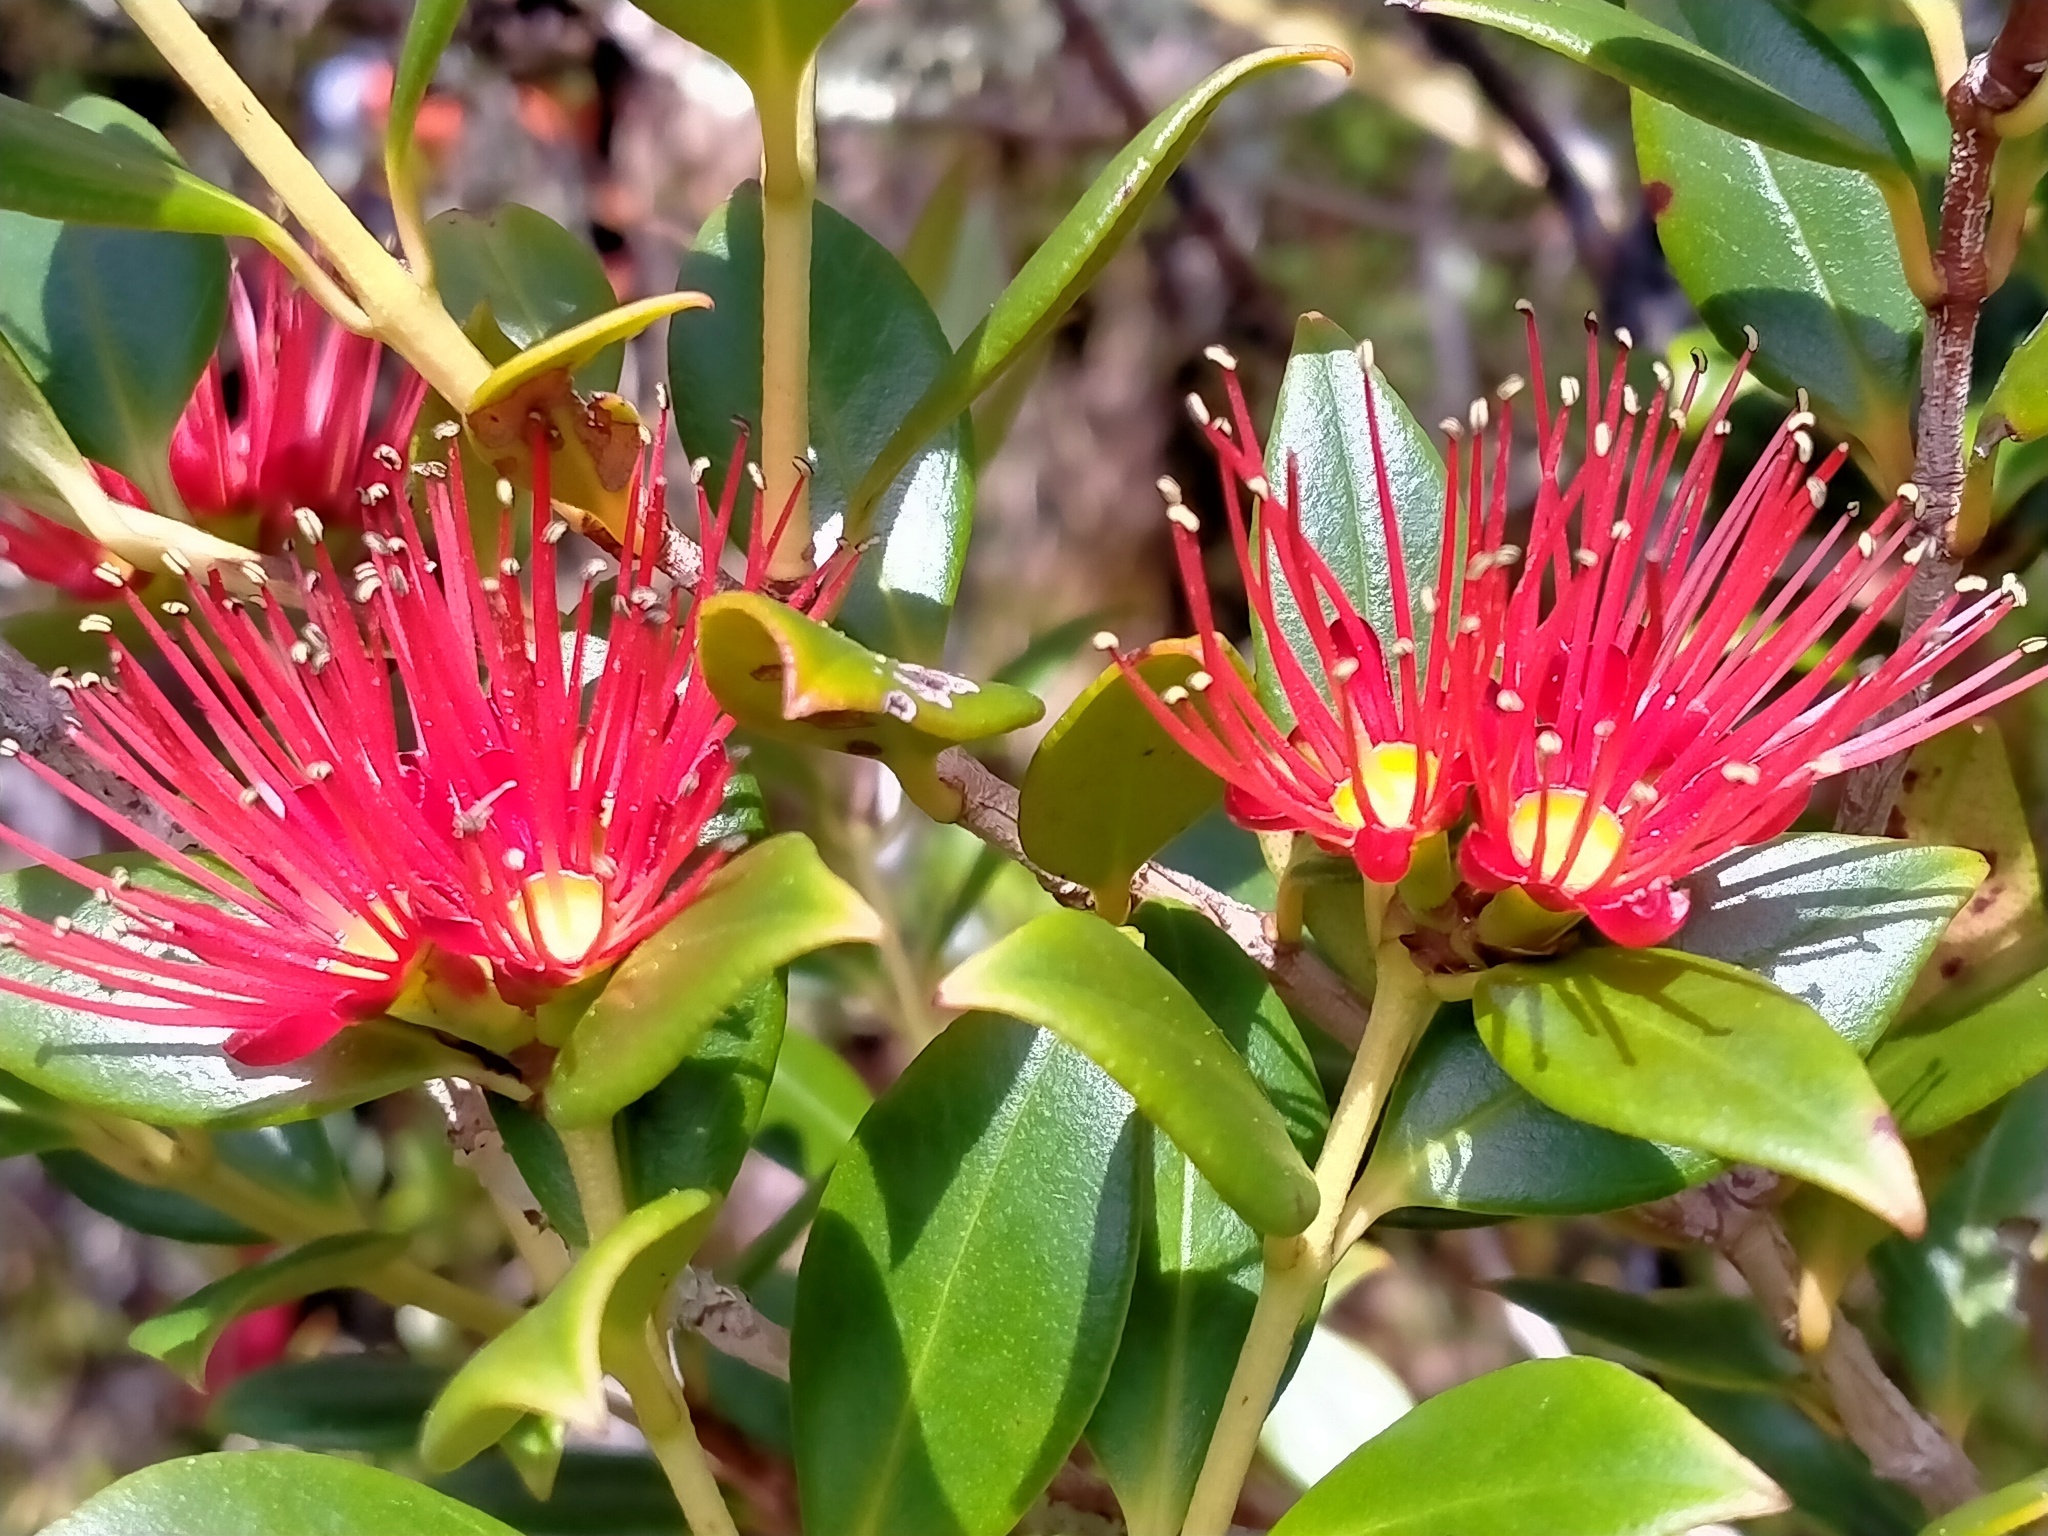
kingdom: Plantae
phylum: Tracheophyta
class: Magnoliopsida
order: Myrtales
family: Myrtaceae
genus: Metrosideros
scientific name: Metrosideros umbellata
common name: Southern rata
